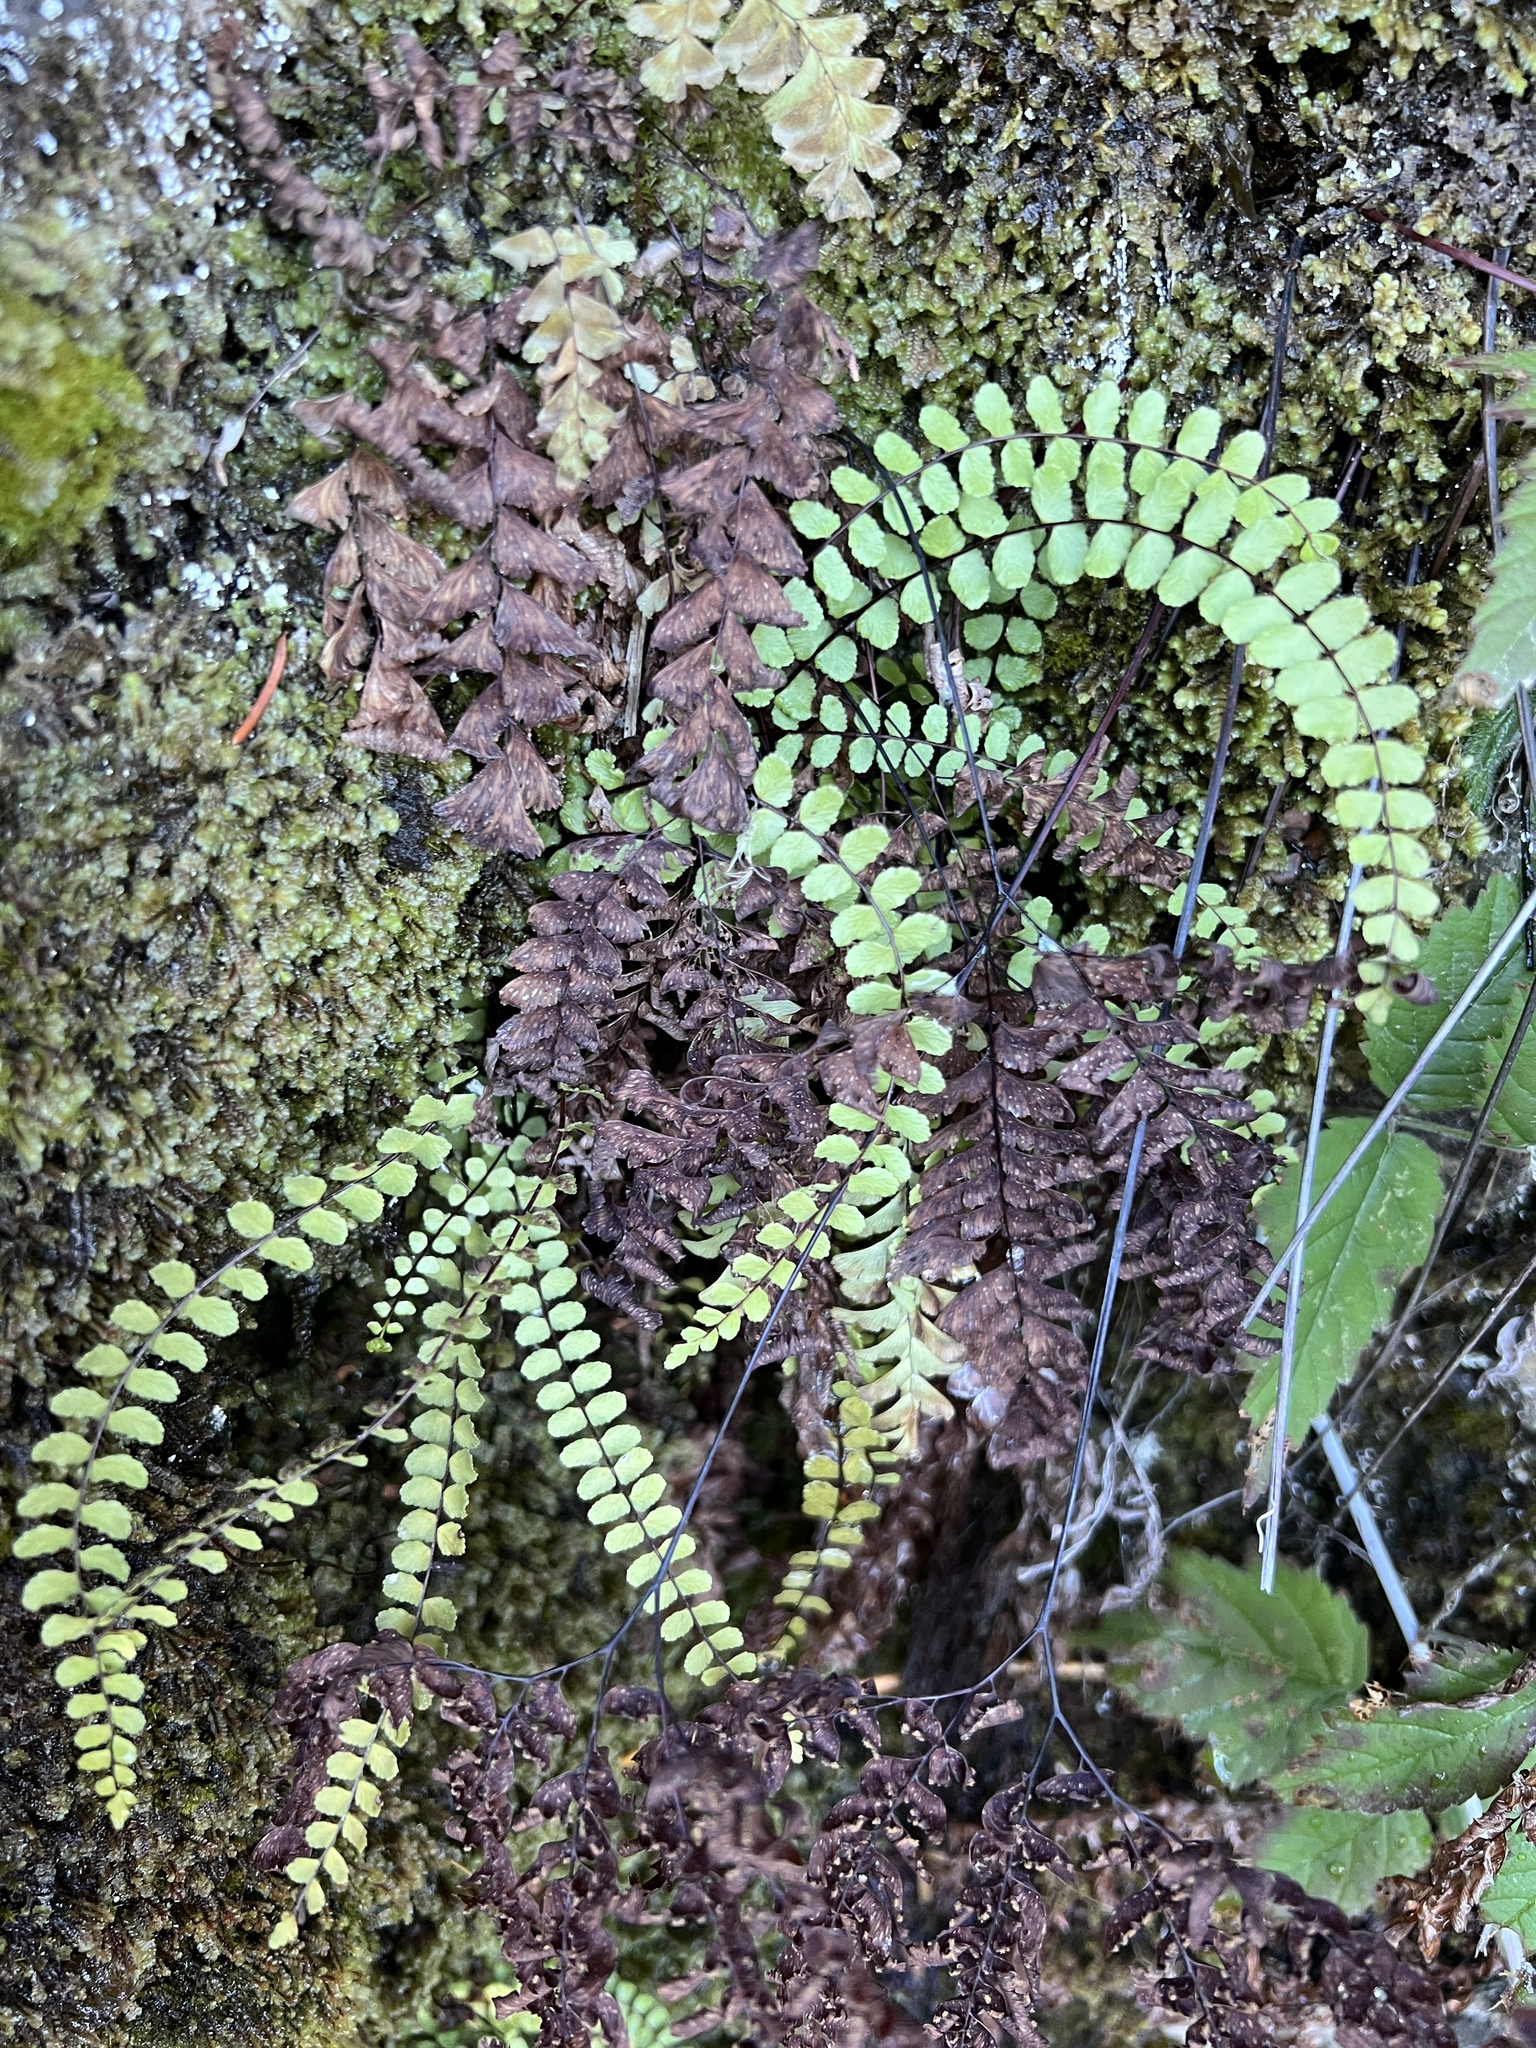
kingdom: Plantae
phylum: Tracheophyta
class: Polypodiopsida
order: Polypodiales
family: Aspleniaceae
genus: Asplenium
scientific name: Asplenium trichomanes
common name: Maidenhair spleenwort
